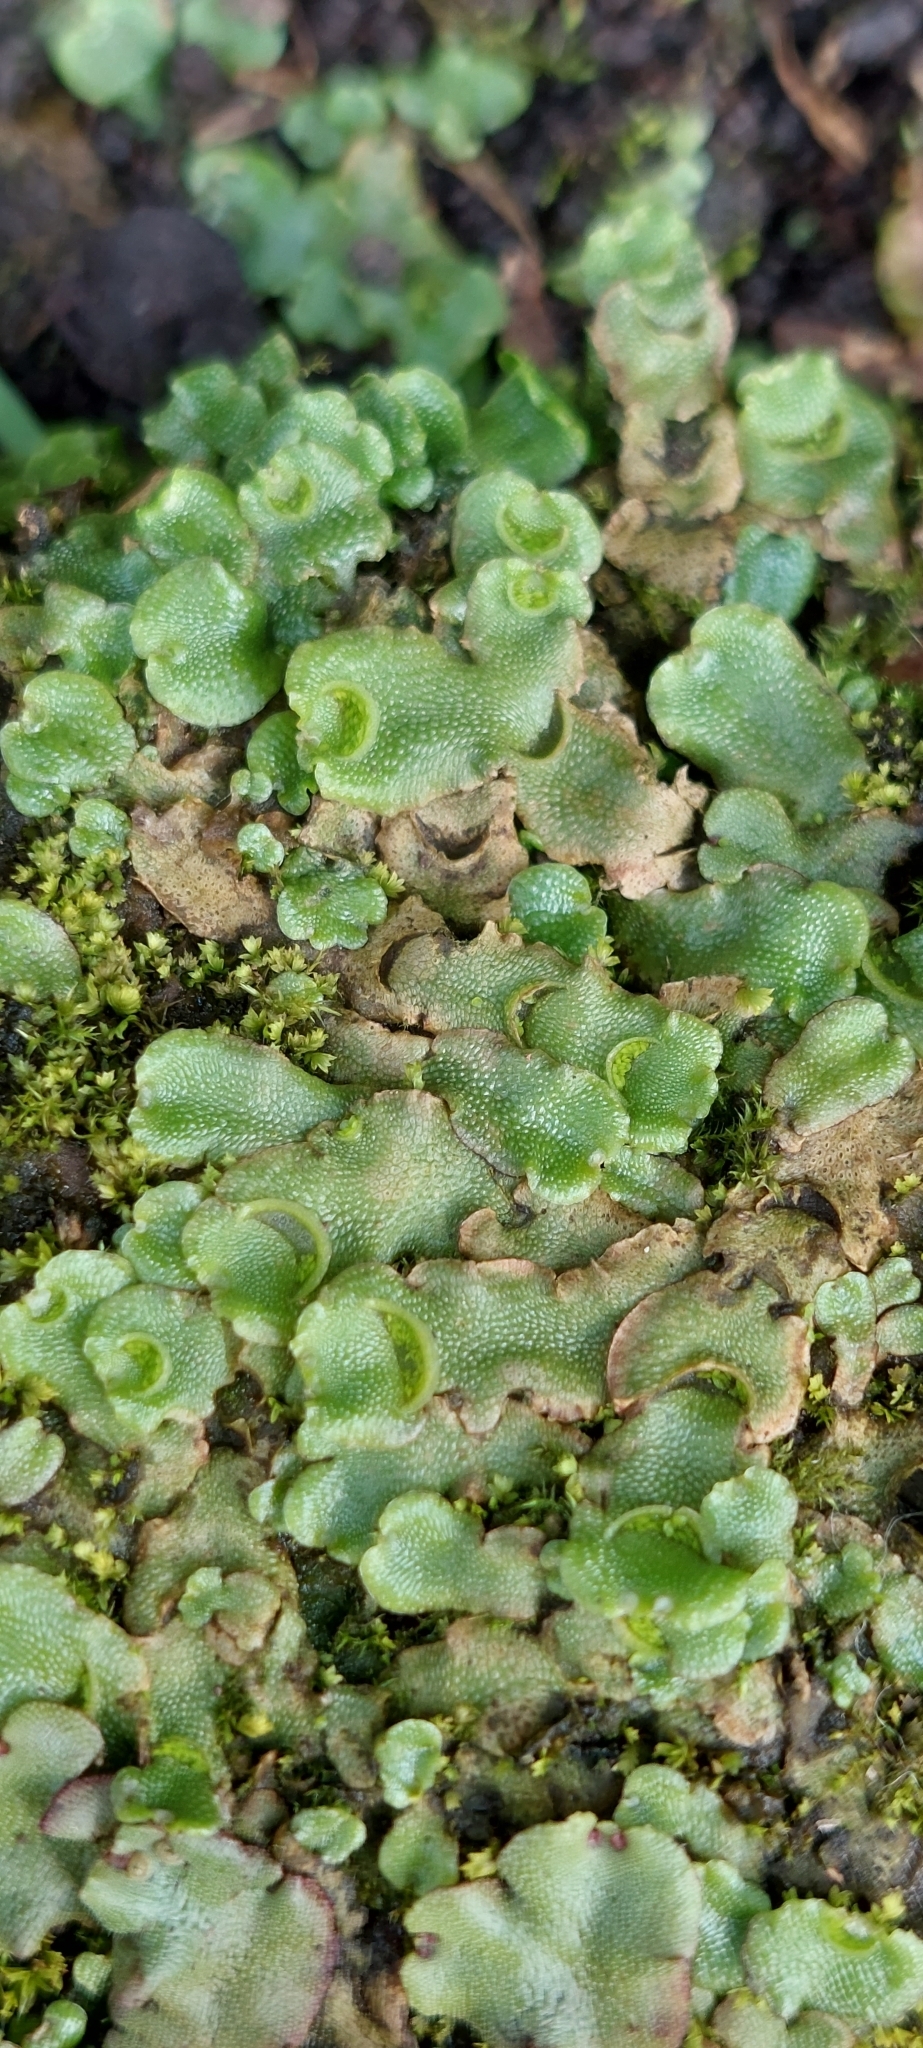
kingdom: Plantae
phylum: Marchantiophyta
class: Marchantiopsida
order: Lunulariales
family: Lunulariaceae
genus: Lunularia
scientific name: Lunularia cruciata
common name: Crescent-cup liverwort
